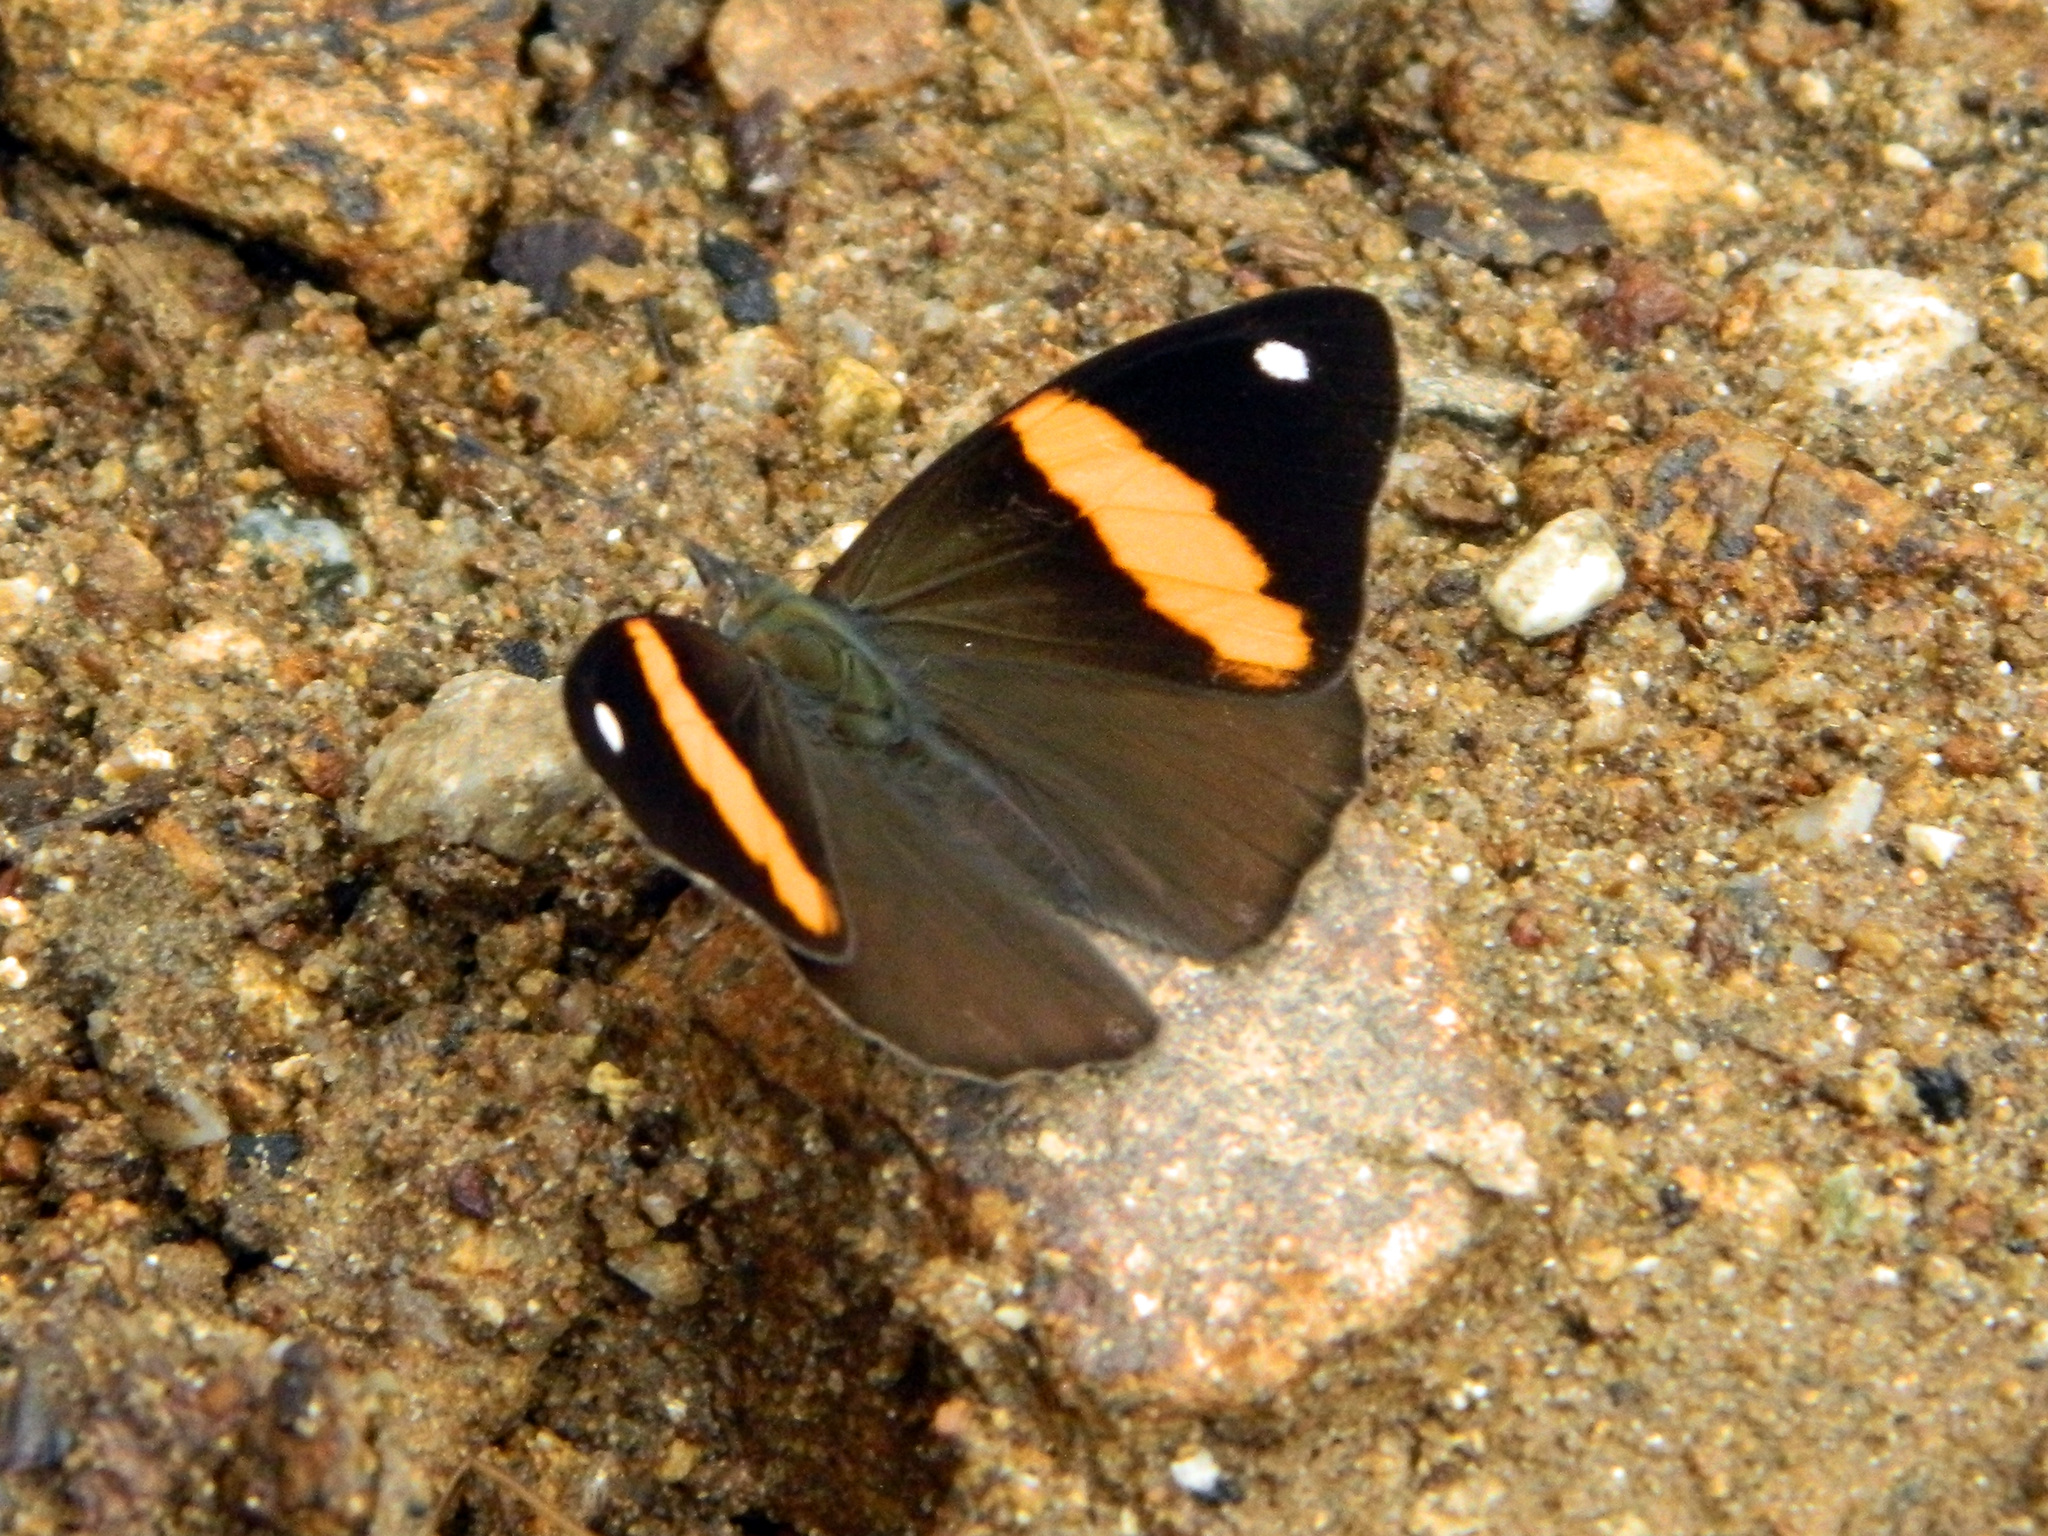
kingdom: Animalia
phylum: Arthropoda
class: Insecta
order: Lepidoptera
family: Nymphalidae
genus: Diaethria
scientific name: Diaethria pandama
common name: Orange-striped eighty-eight
